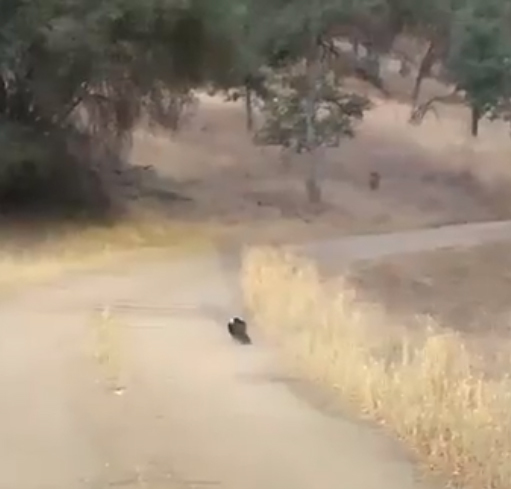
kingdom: Animalia
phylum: Chordata
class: Mammalia
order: Carnivora
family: Mephitidae
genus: Mephitis
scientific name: Mephitis mephitis
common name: Striped skunk
